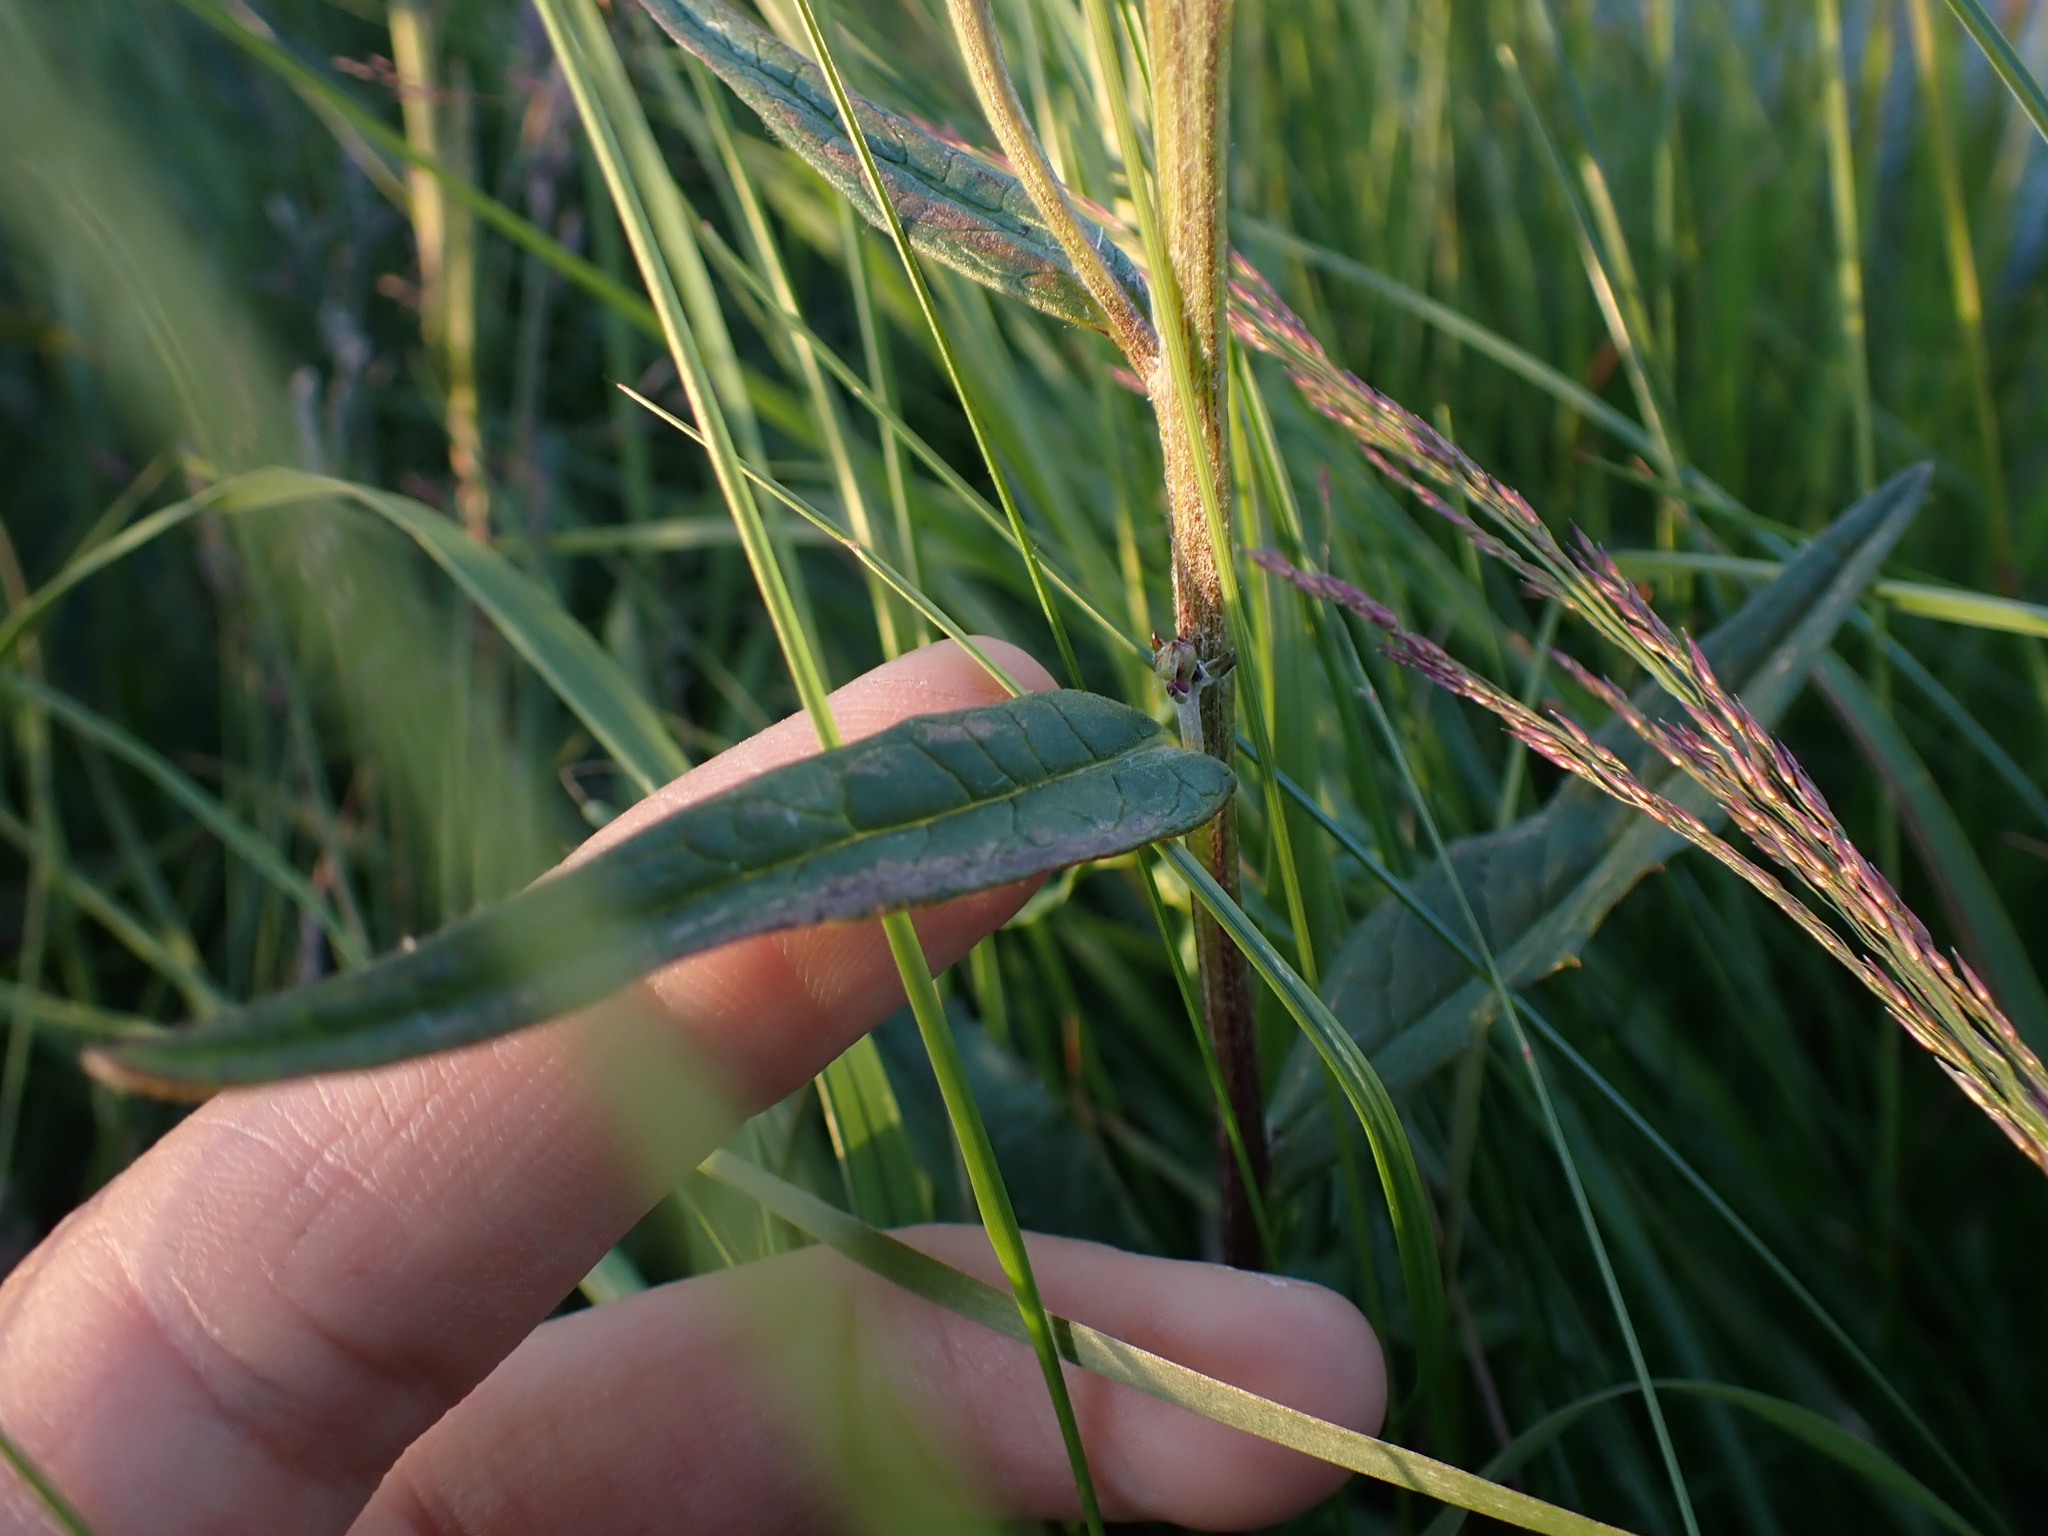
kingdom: Plantae
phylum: Tracheophyta
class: Magnoliopsida
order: Asterales
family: Asteraceae
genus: Saussurea
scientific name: Saussurea alpina
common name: Alpine saw-wort
